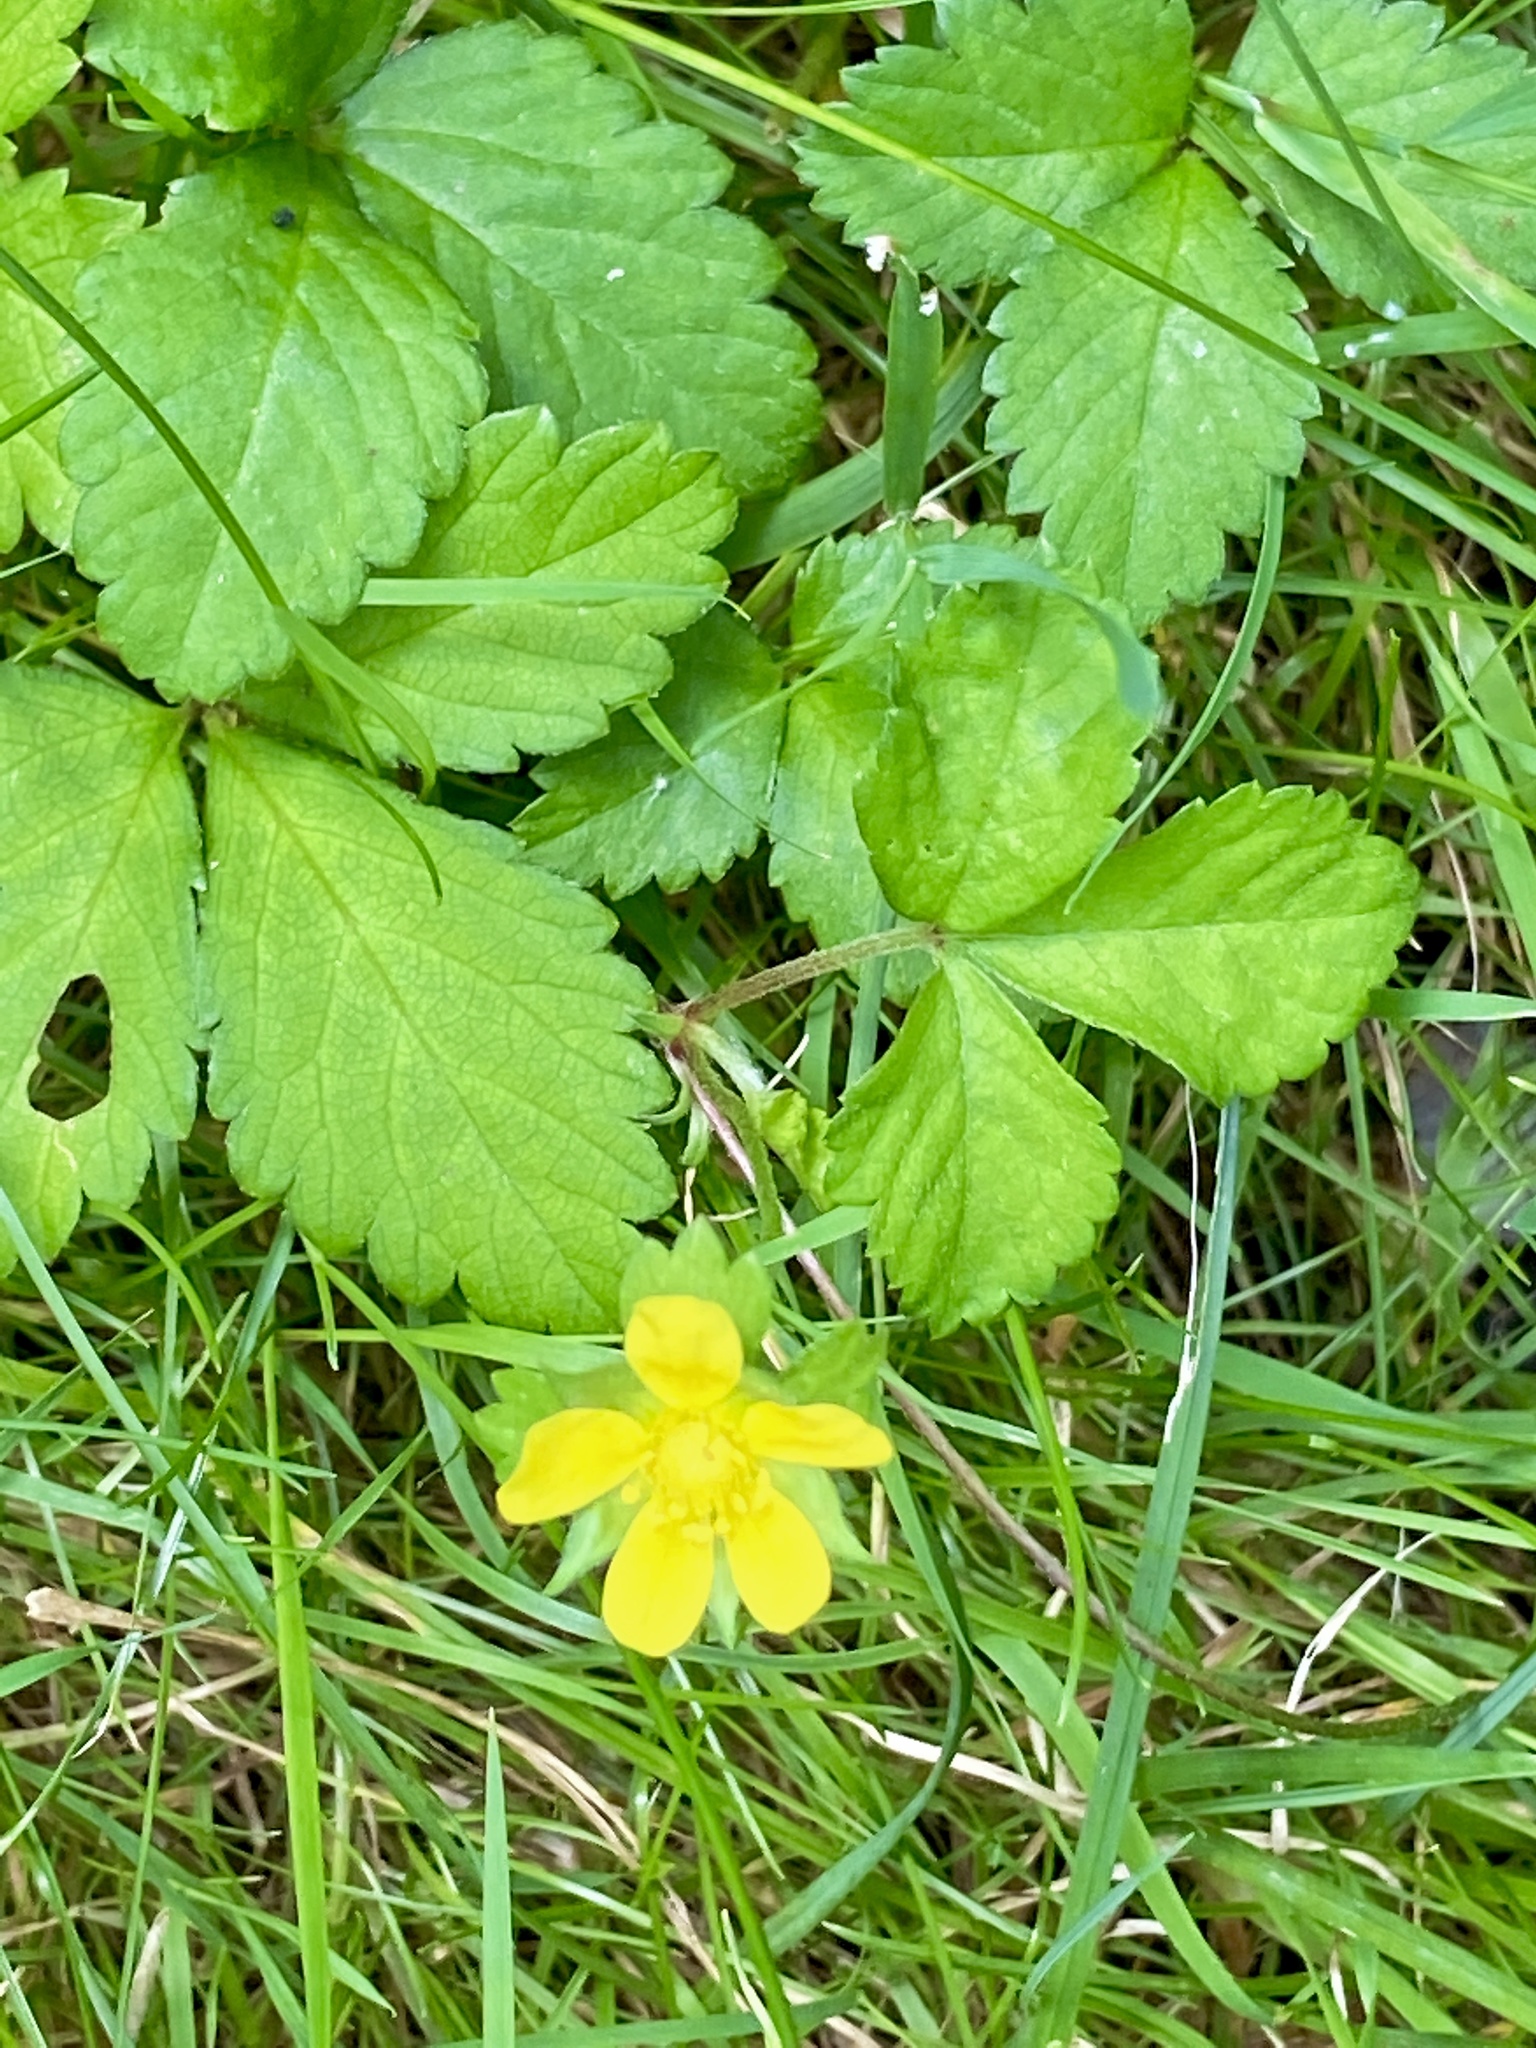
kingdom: Plantae
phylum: Tracheophyta
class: Magnoliopsida
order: Rosales
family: Rosaceae
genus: Potentilla
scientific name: Potentilla indica
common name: Yellow-flowered strawberry
